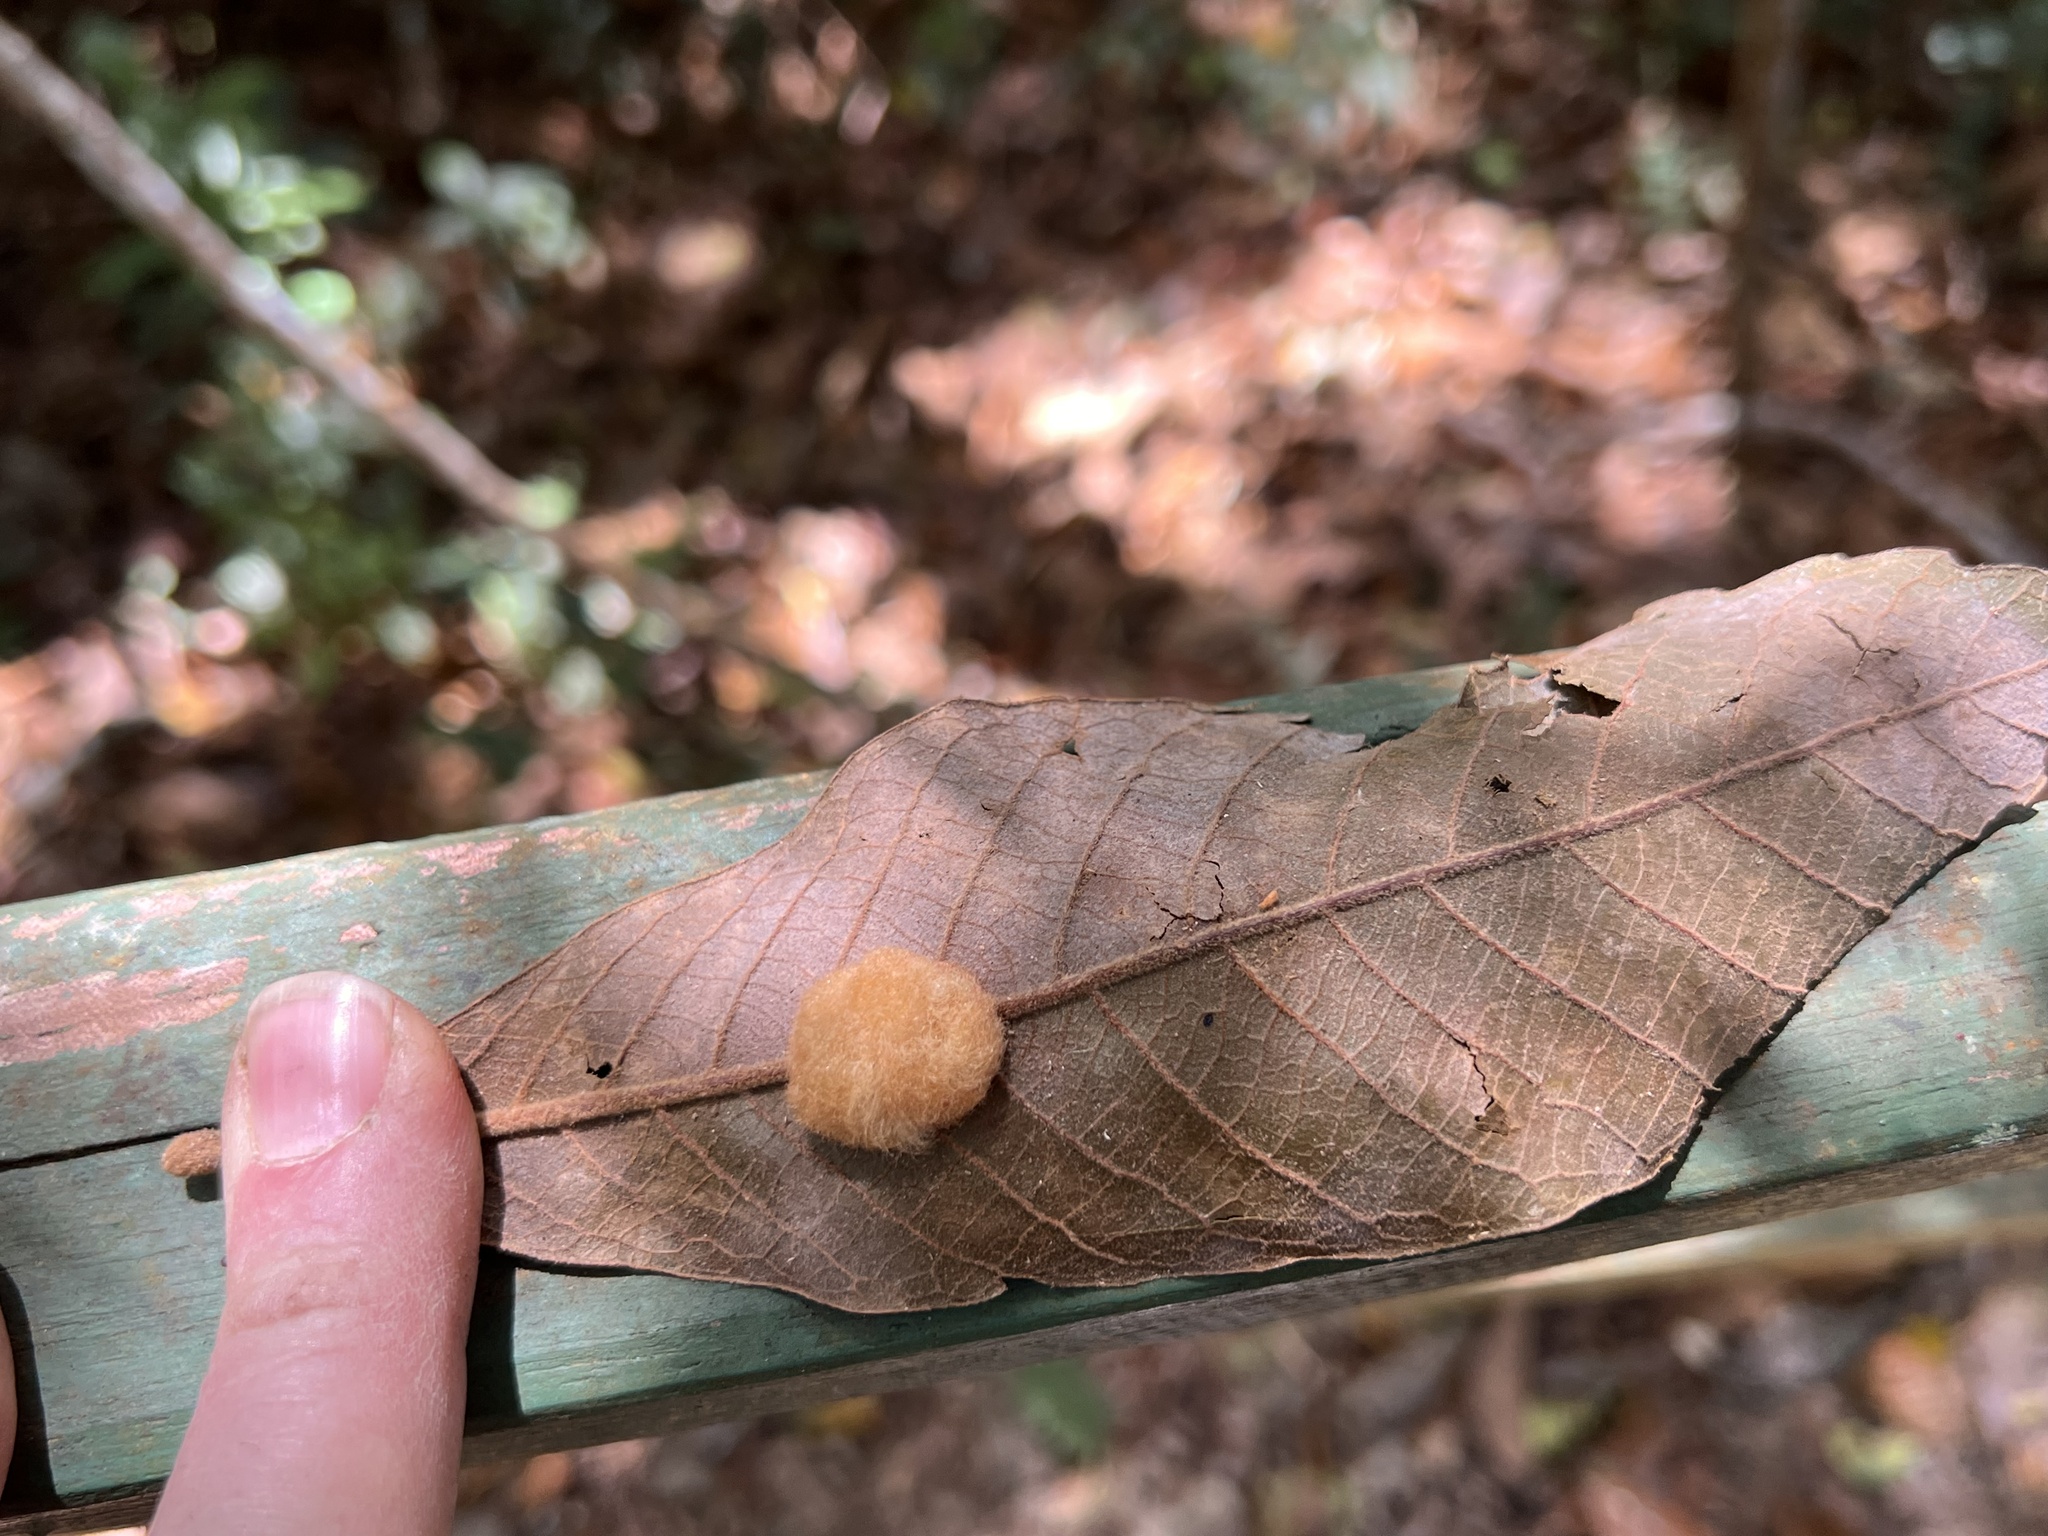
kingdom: Animalia
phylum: Arthropoda
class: Insecta
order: Hymenoptera
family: Cynipidae
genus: Striatoandricus
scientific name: Striatoandricus
